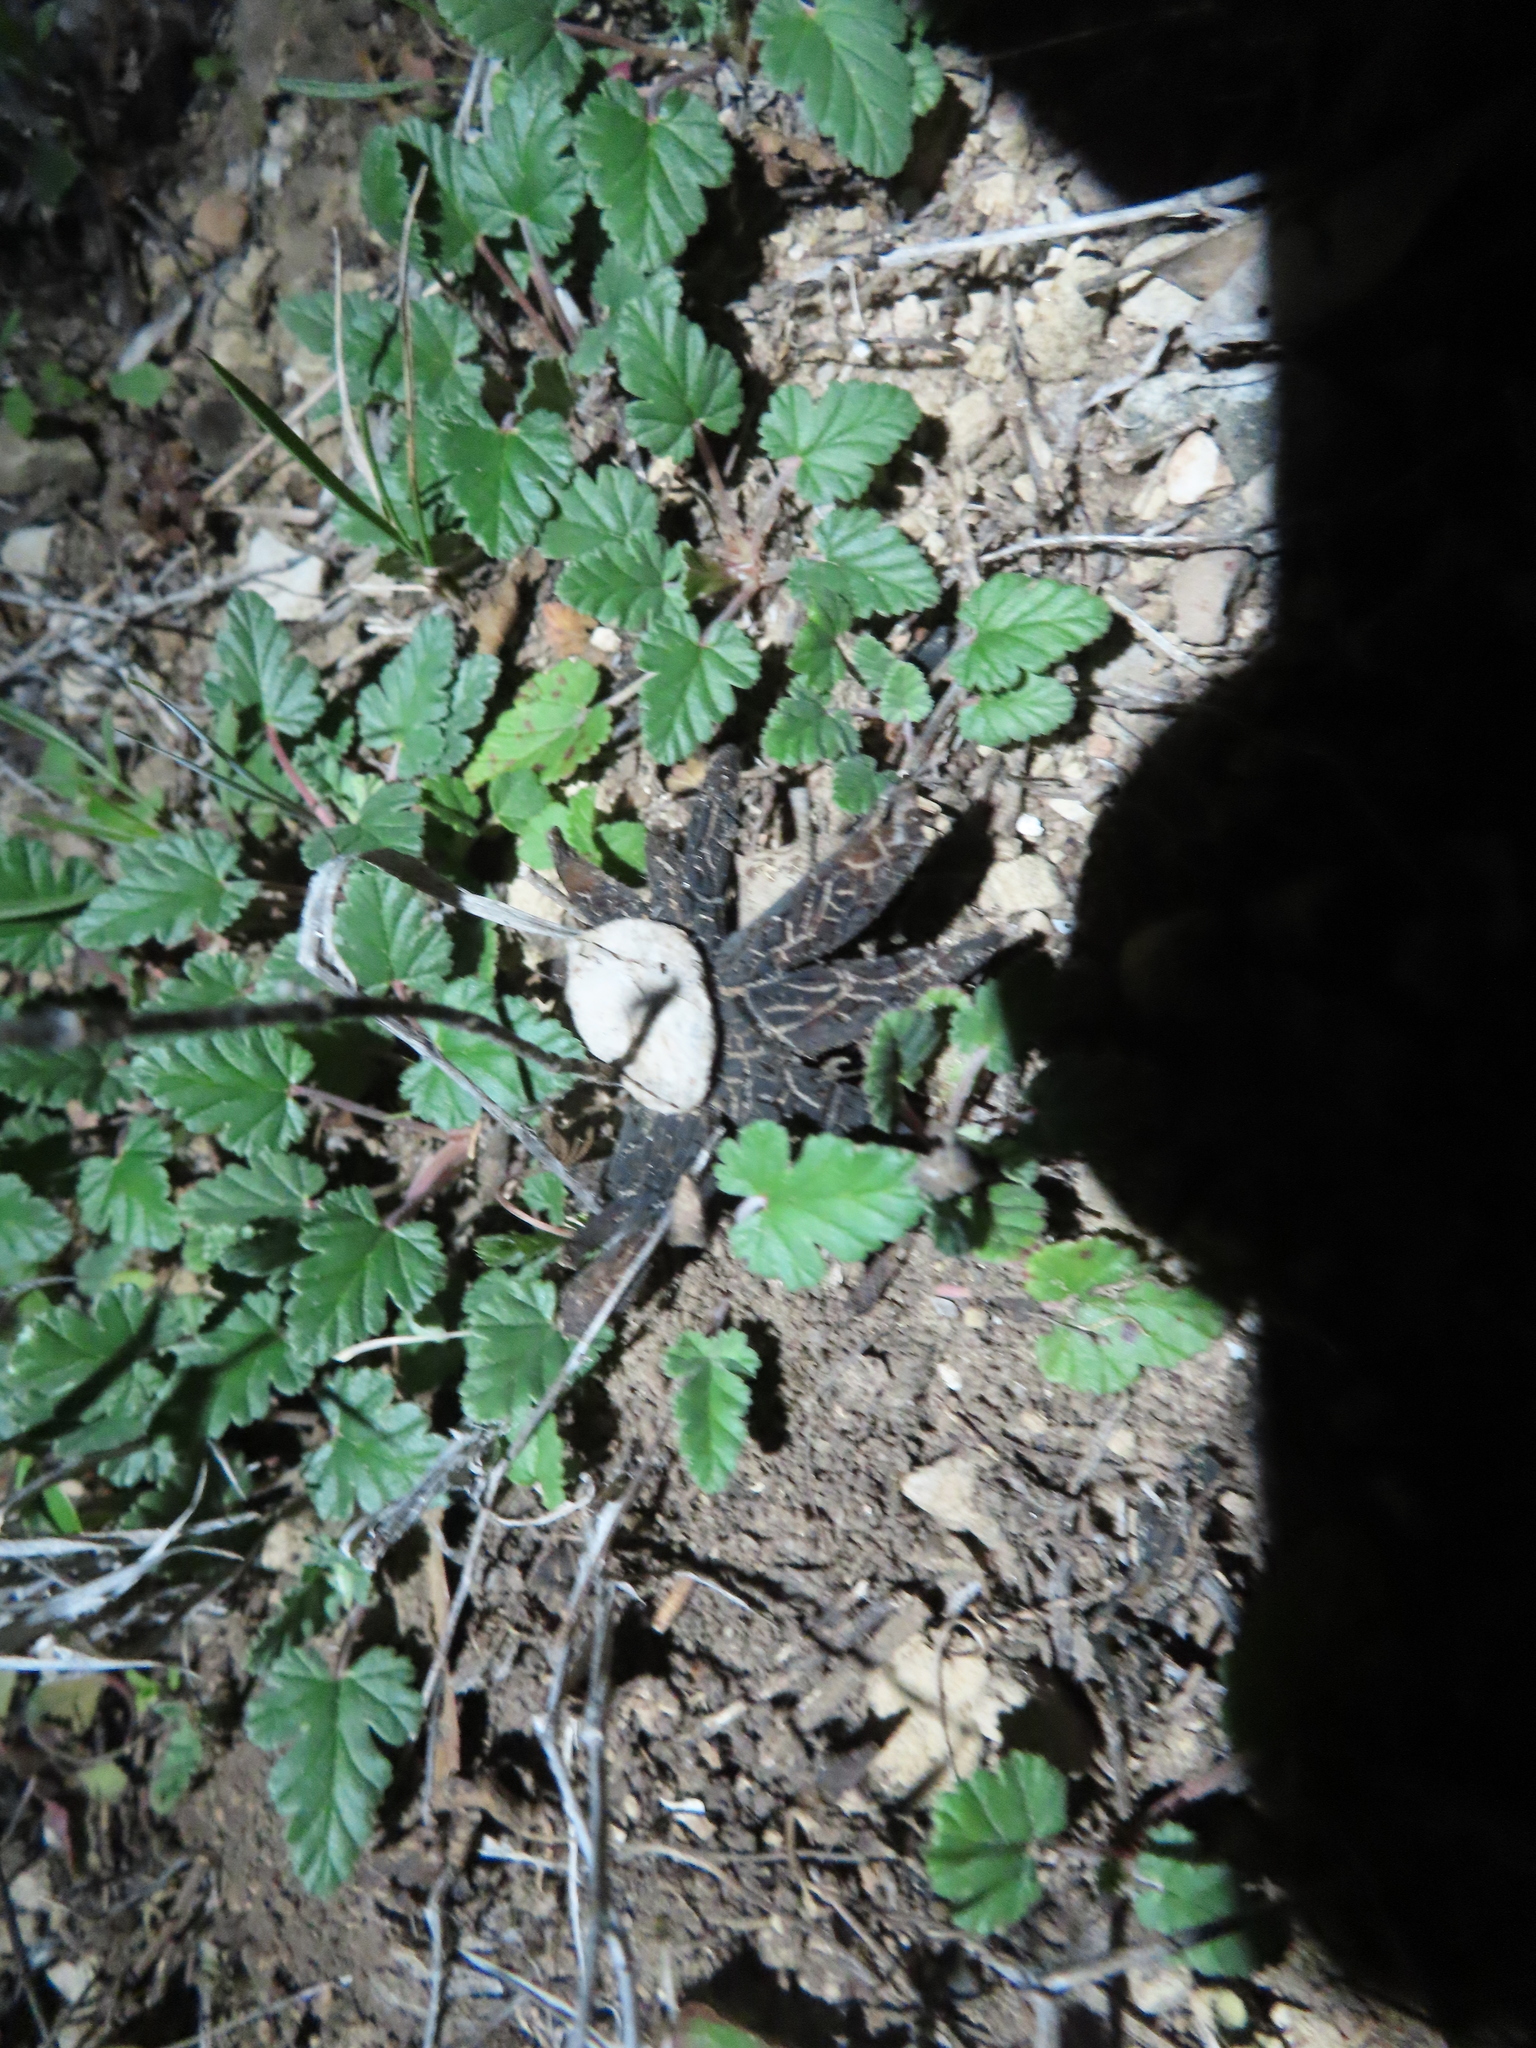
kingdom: Fungi
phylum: Basidiomycota
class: Agaricomycetes
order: Boletales
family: Diplocystidiaceae
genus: Astraeus
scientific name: Astraeus morganii
